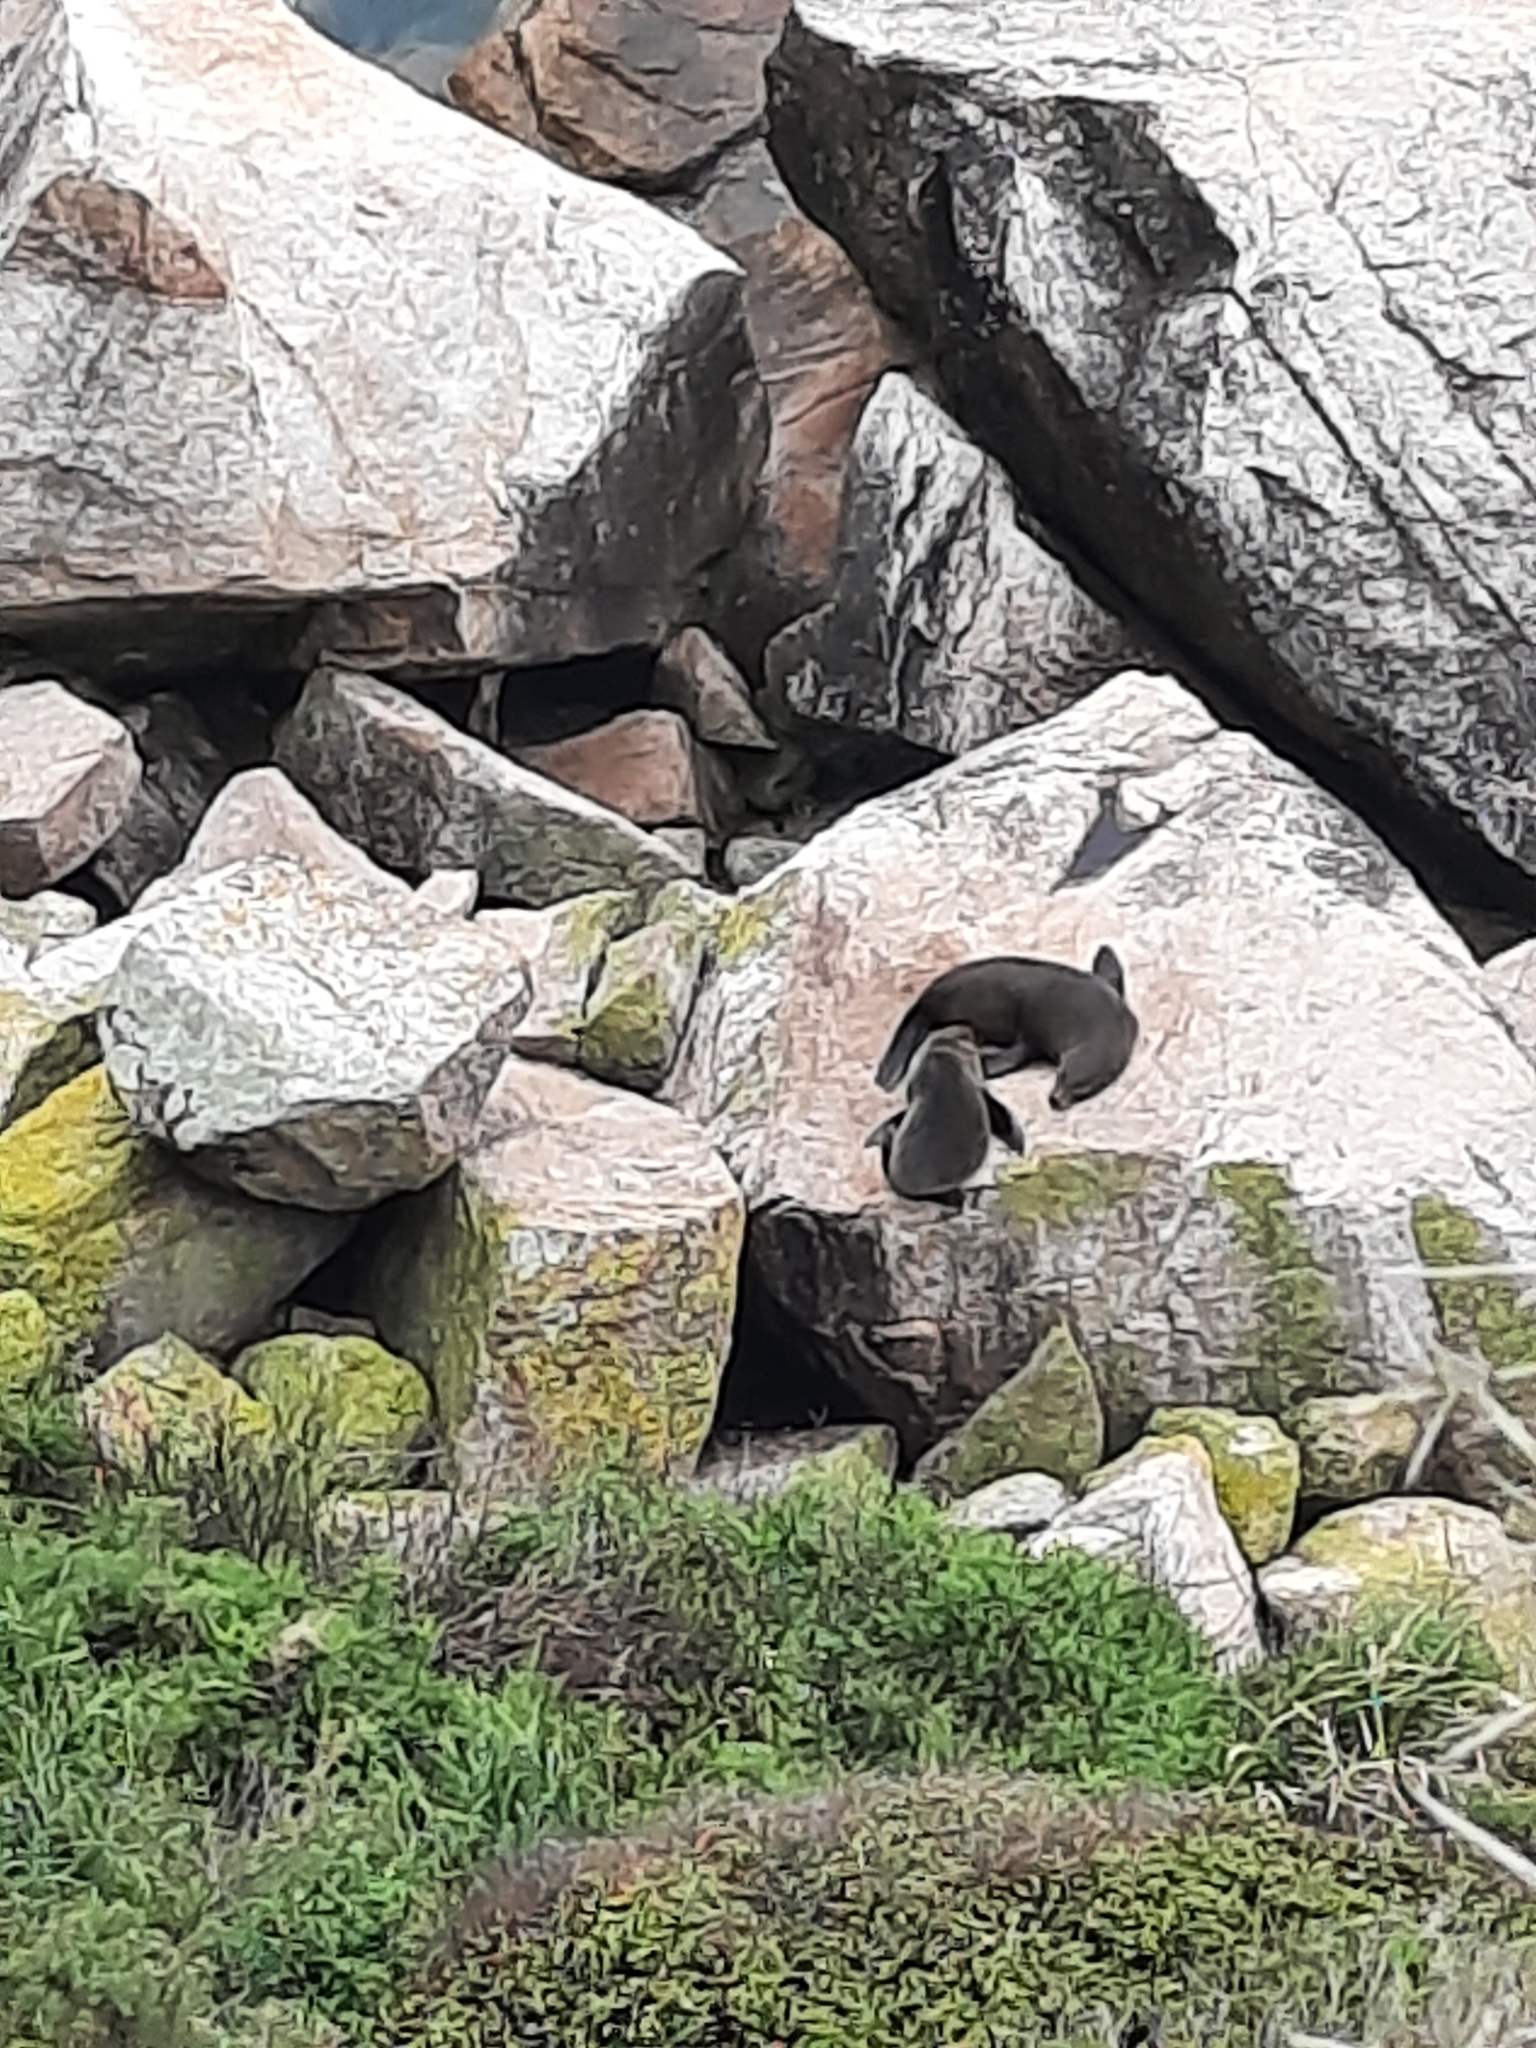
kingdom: Animalia
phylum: Chordata
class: Mammalia
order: Carnivora
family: Otariidae
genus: Arctocephalus
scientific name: Arctocephalus forsteri
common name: New zealand fur seal
